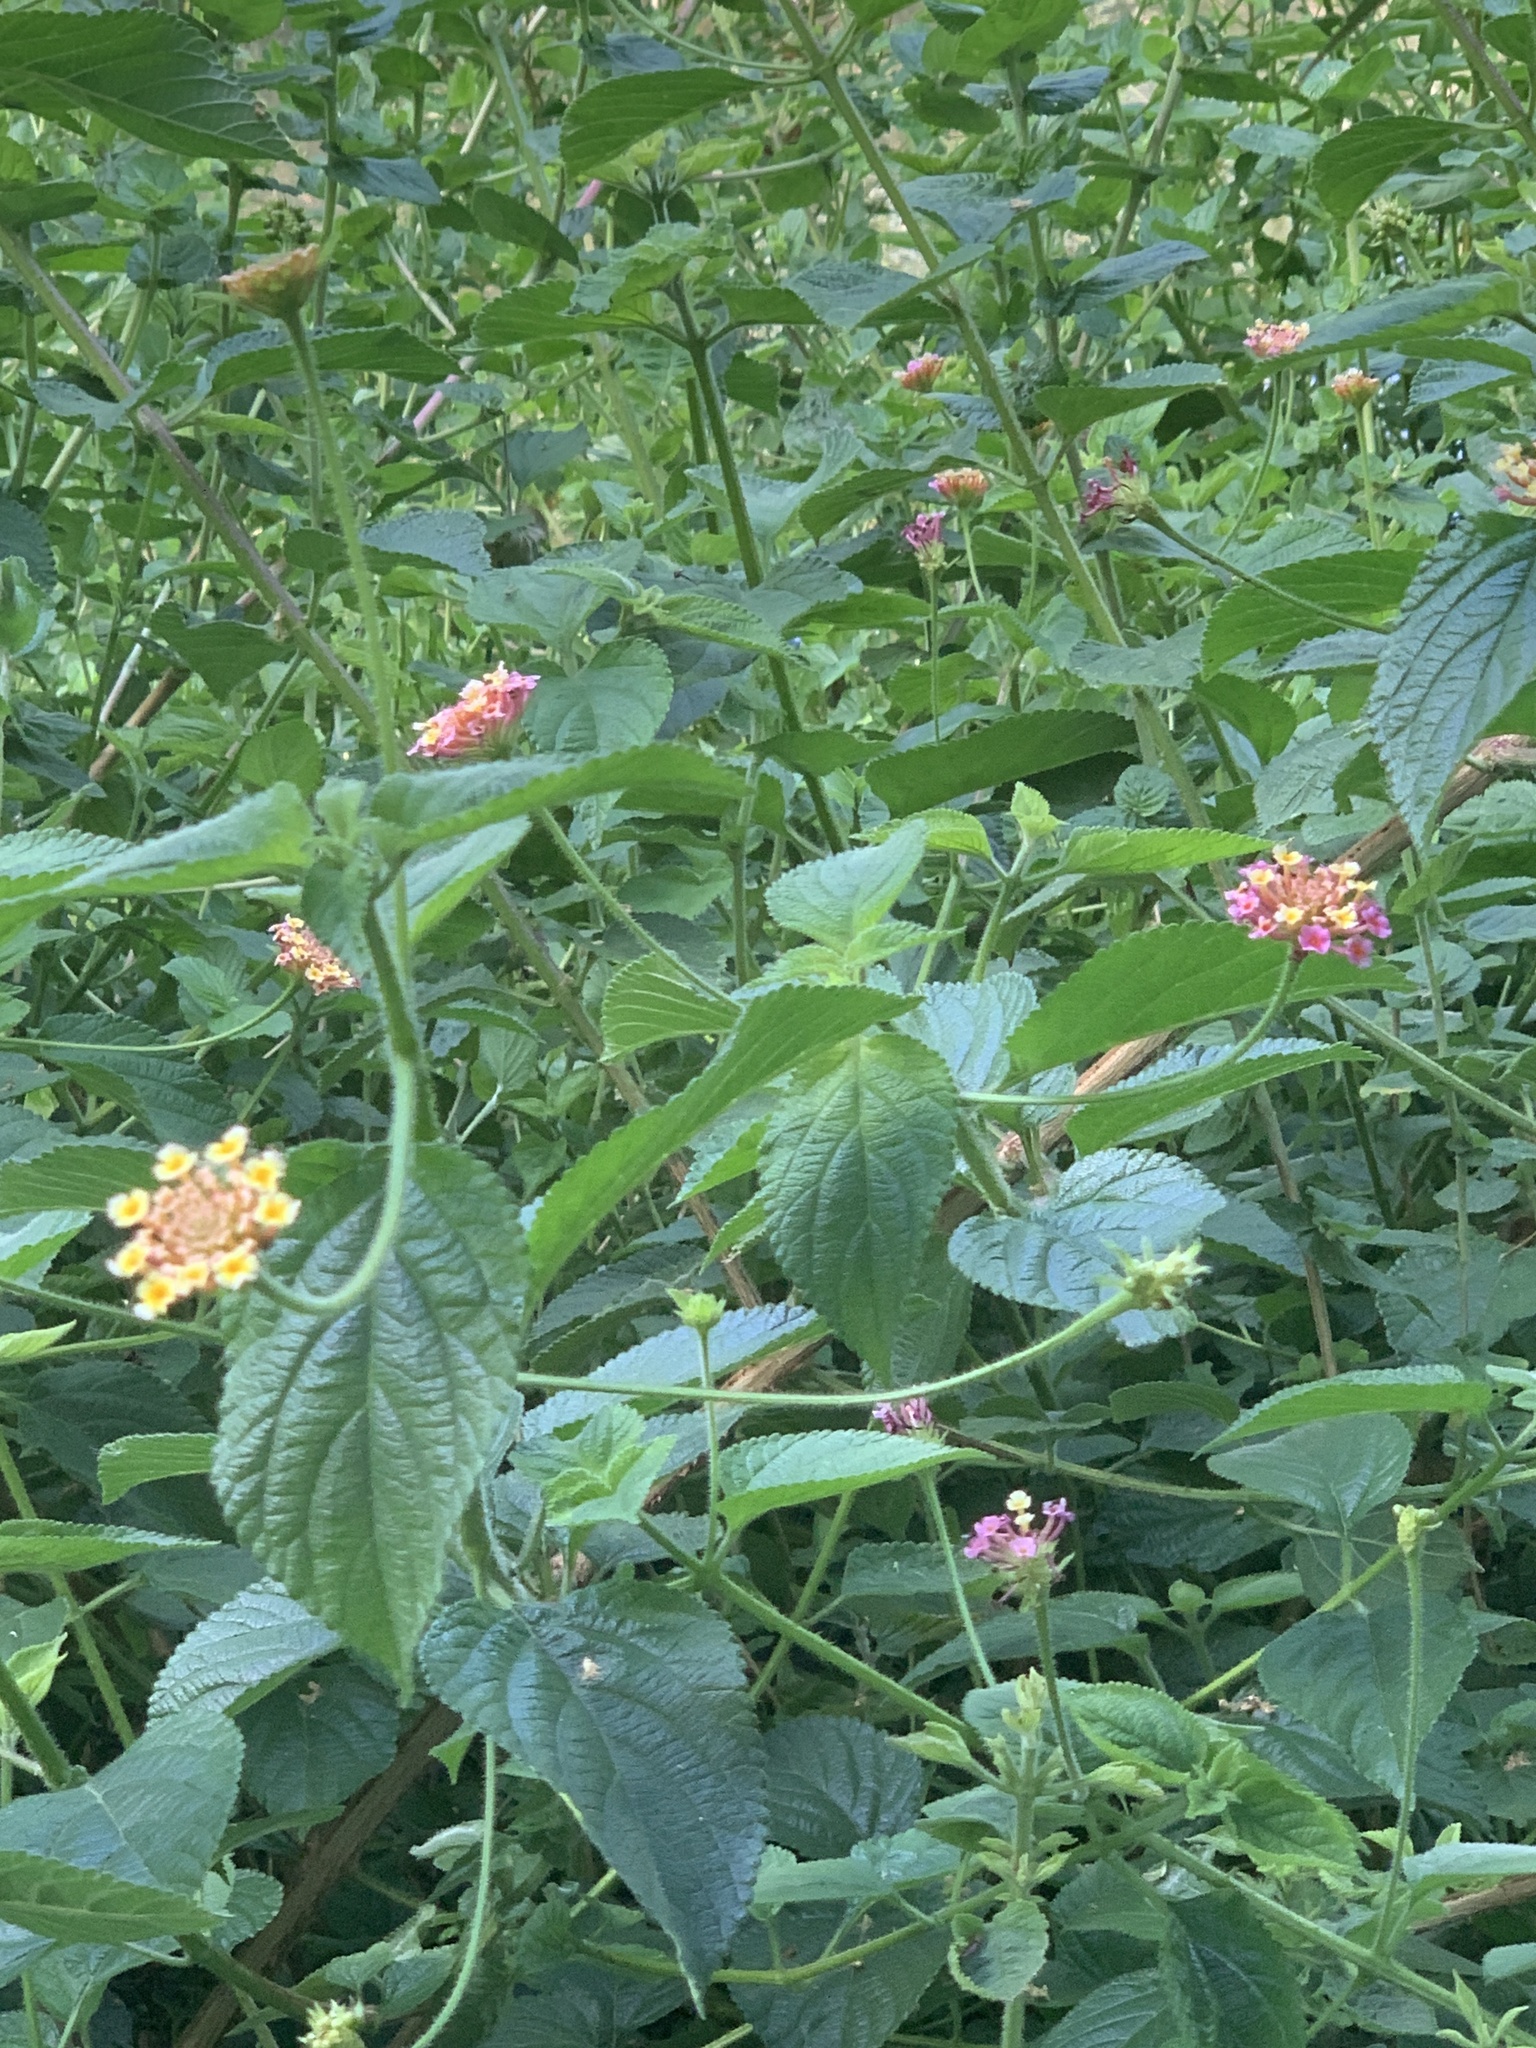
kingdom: Plantae
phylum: Tracheophyta
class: Magnoliopsida
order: Lamiales
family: Verbenaceae
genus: Lantana
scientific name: Lantana camara
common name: Lantana
